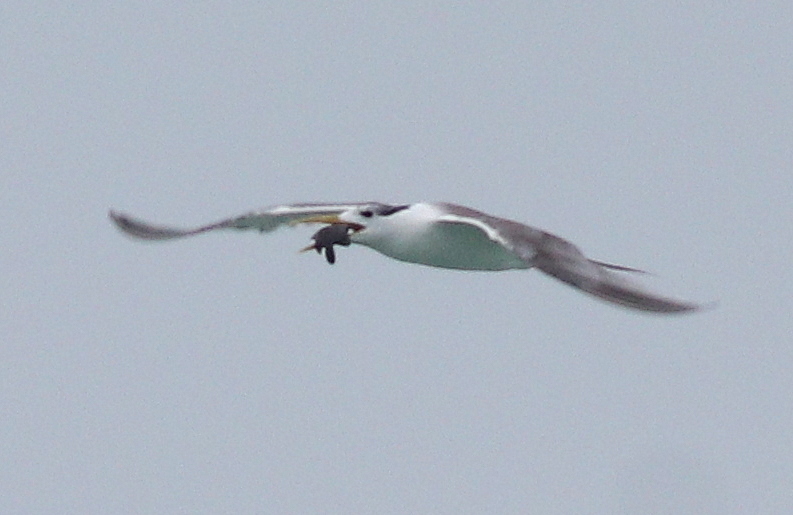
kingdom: Animalia
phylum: Chordata
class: Aves
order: Charadriiformes
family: Laridae
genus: Thalasseus
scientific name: Thalasseus bergii
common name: Greater crested tern
